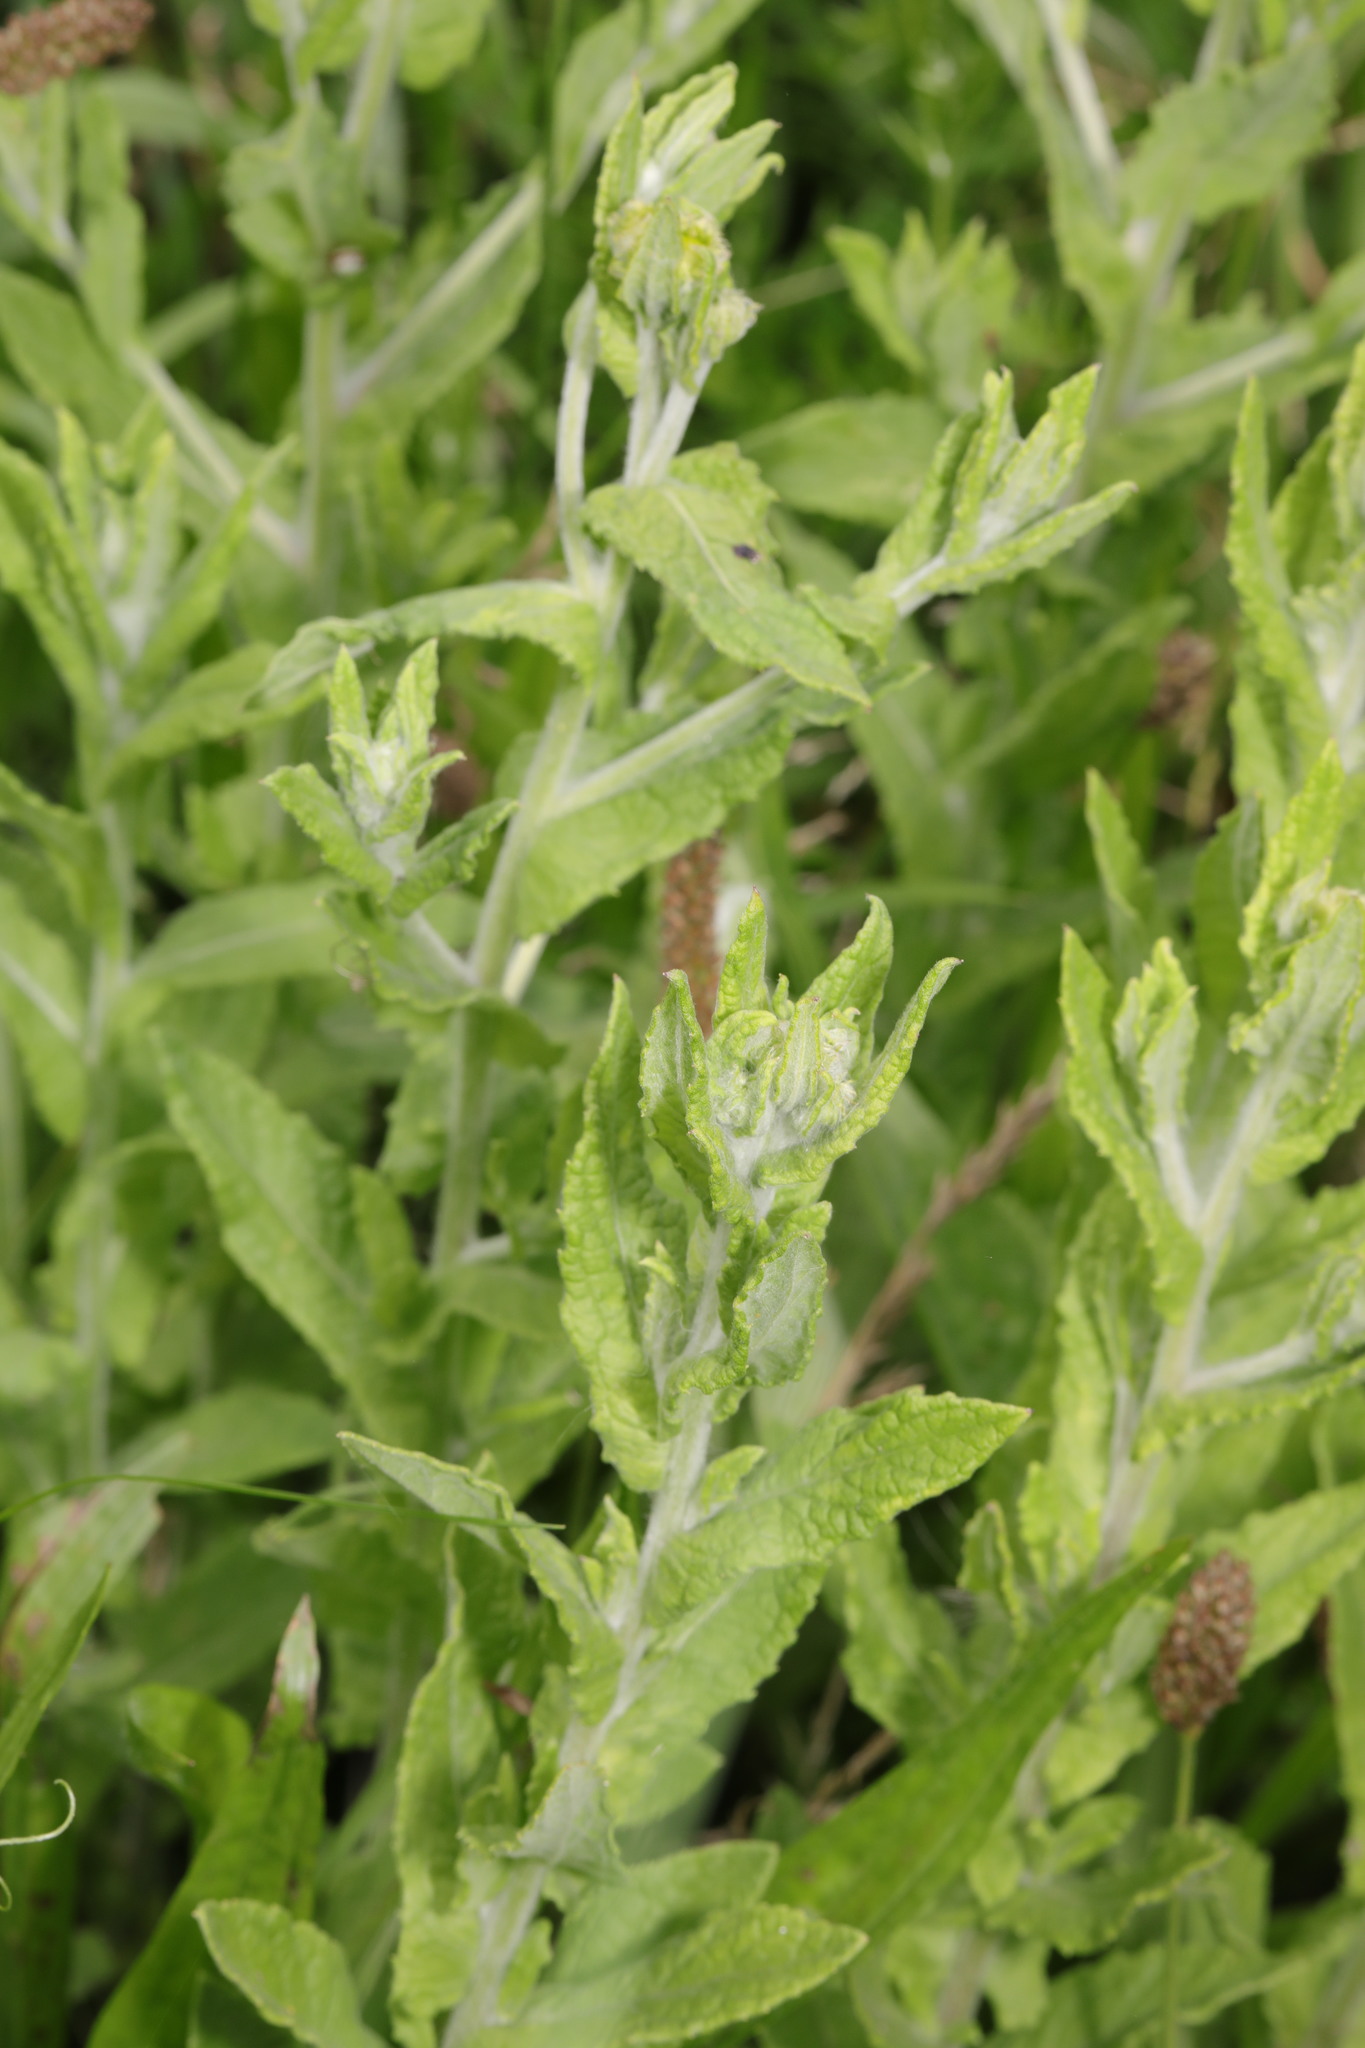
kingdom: Plantae
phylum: Tracheophyta
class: Magnoliopsida
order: Asterales
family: Asteraceae
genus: Pulicaria
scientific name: Pulicaria dysenterica
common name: Common fleabane
